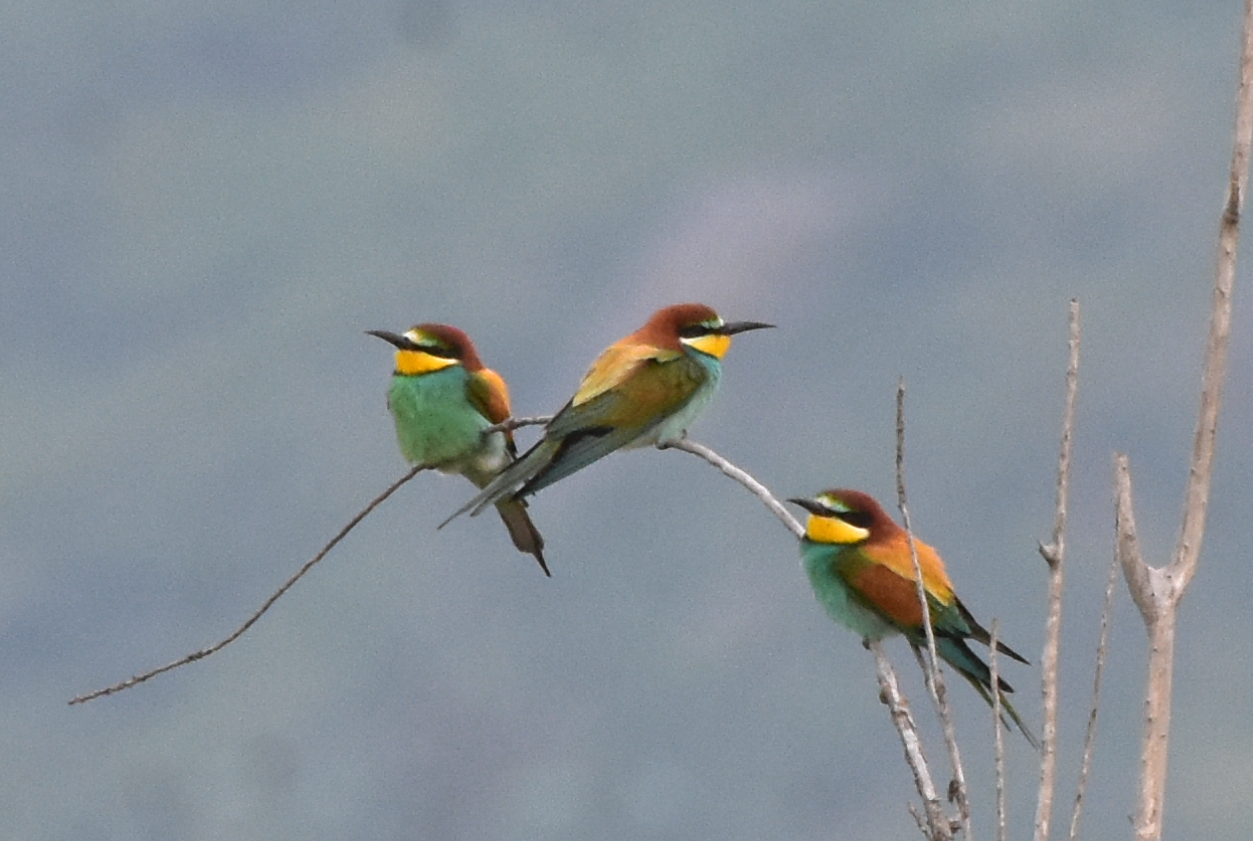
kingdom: Animalia
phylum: Chordata
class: Aves
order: Coraciiformes
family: Meropidae
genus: Merops
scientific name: Merops apiaster
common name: European bee-eater
